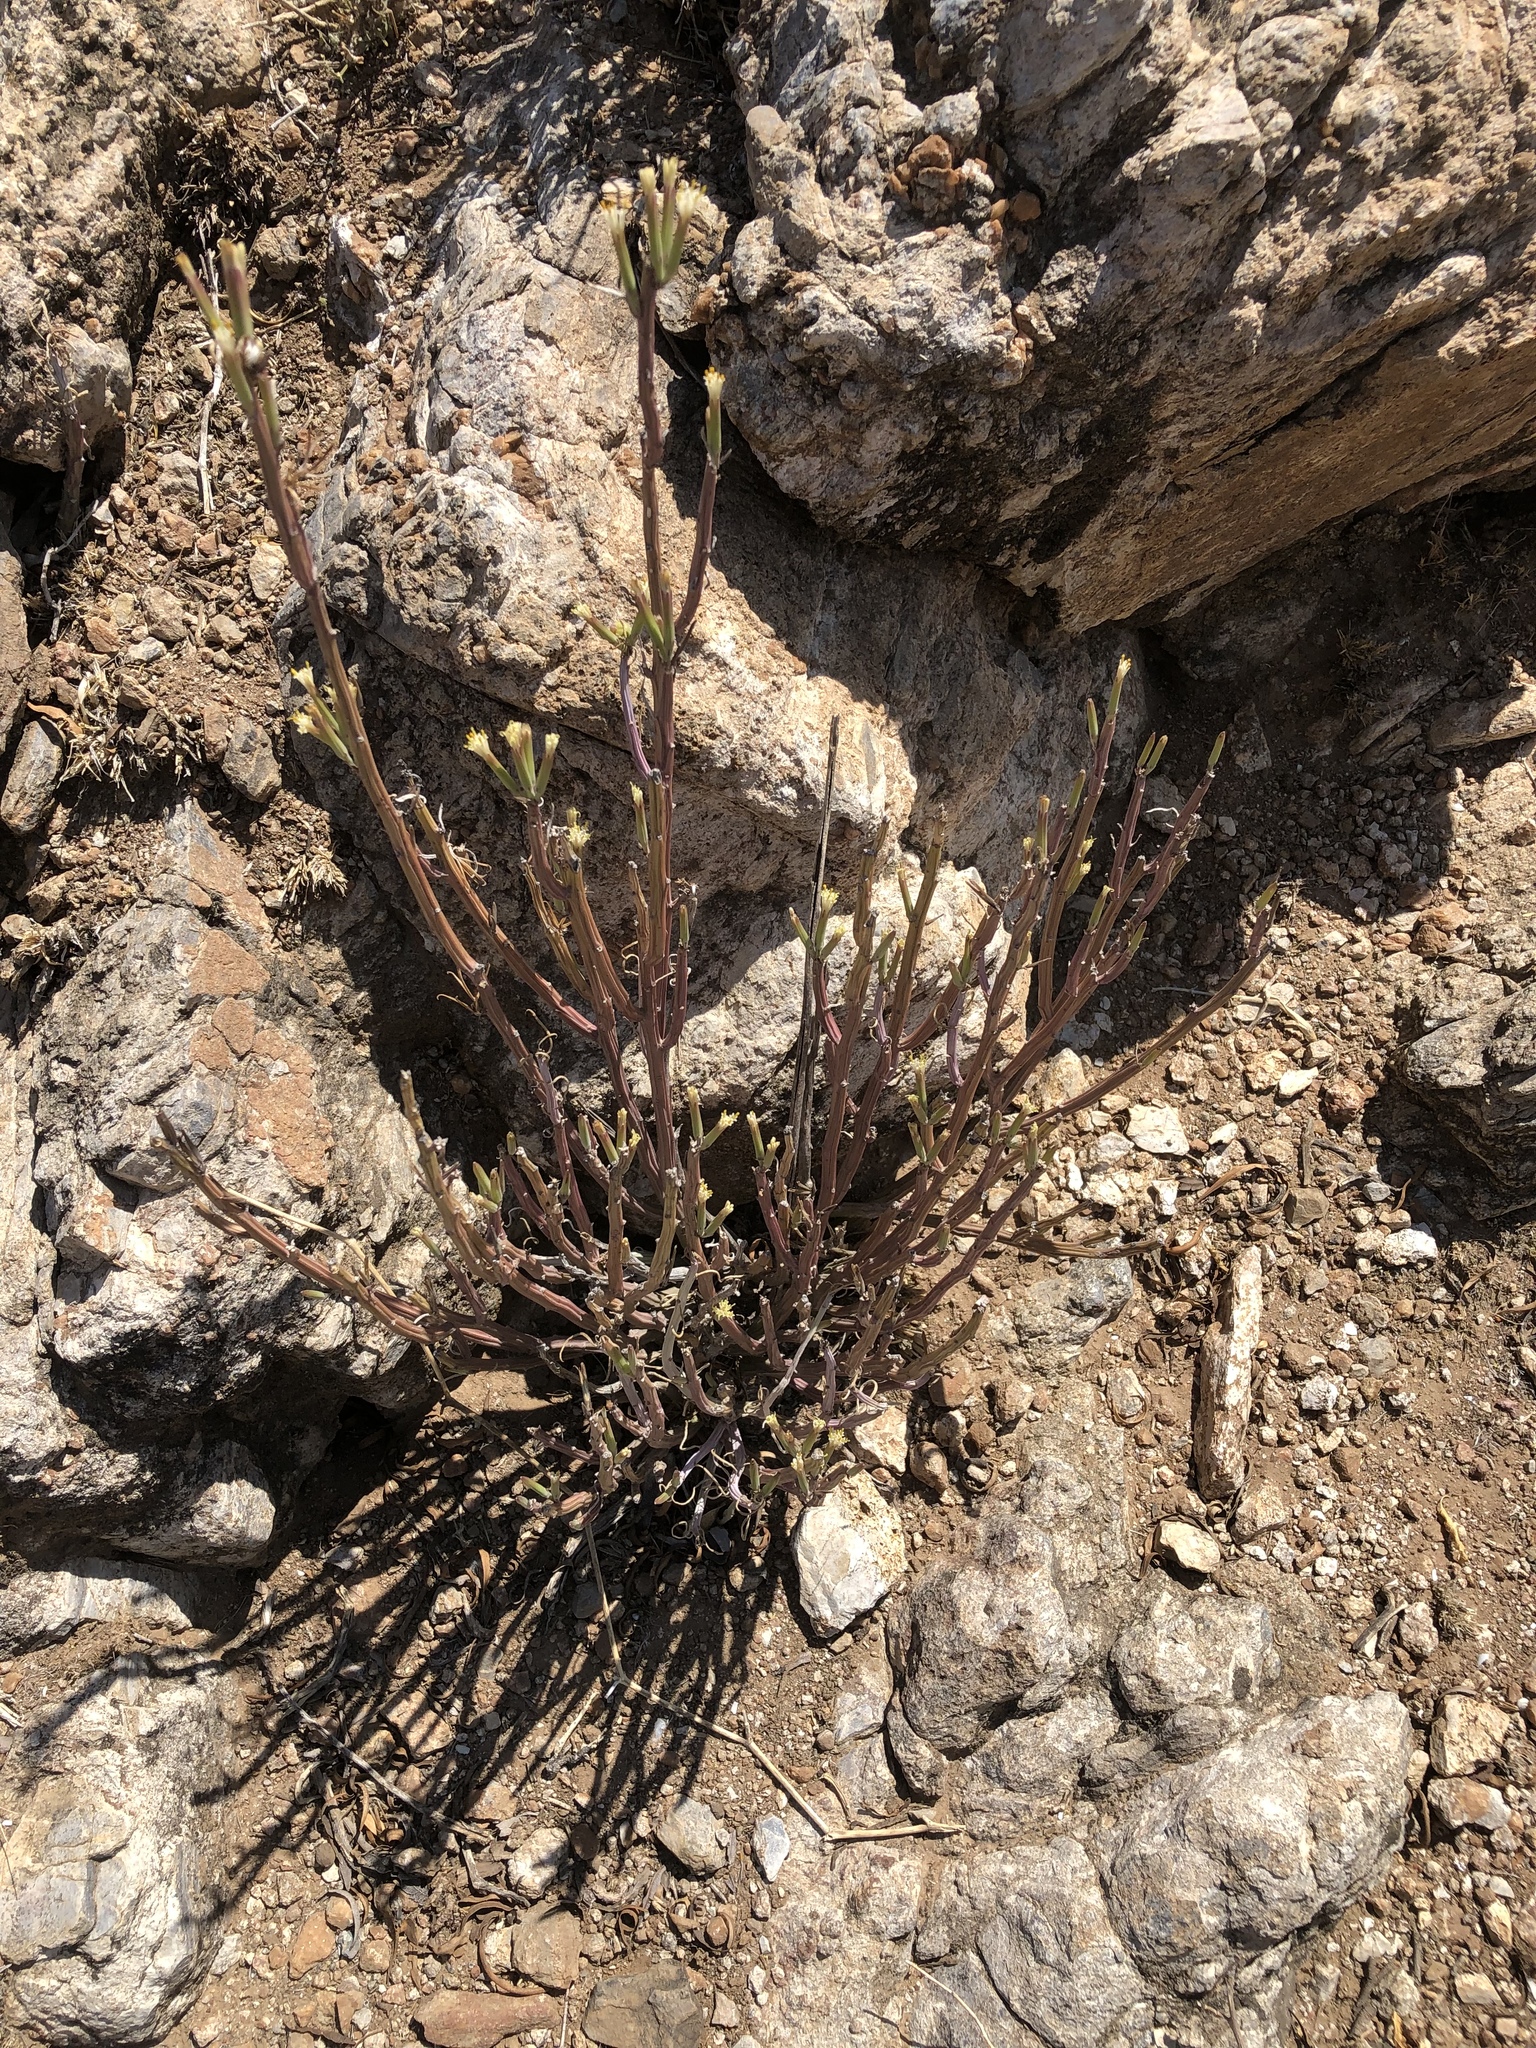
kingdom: Plantae
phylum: Tracheophyta
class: Magnoliopsida
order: Asterales
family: Asteraceae
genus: Curio
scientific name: Curio avasimontanus
